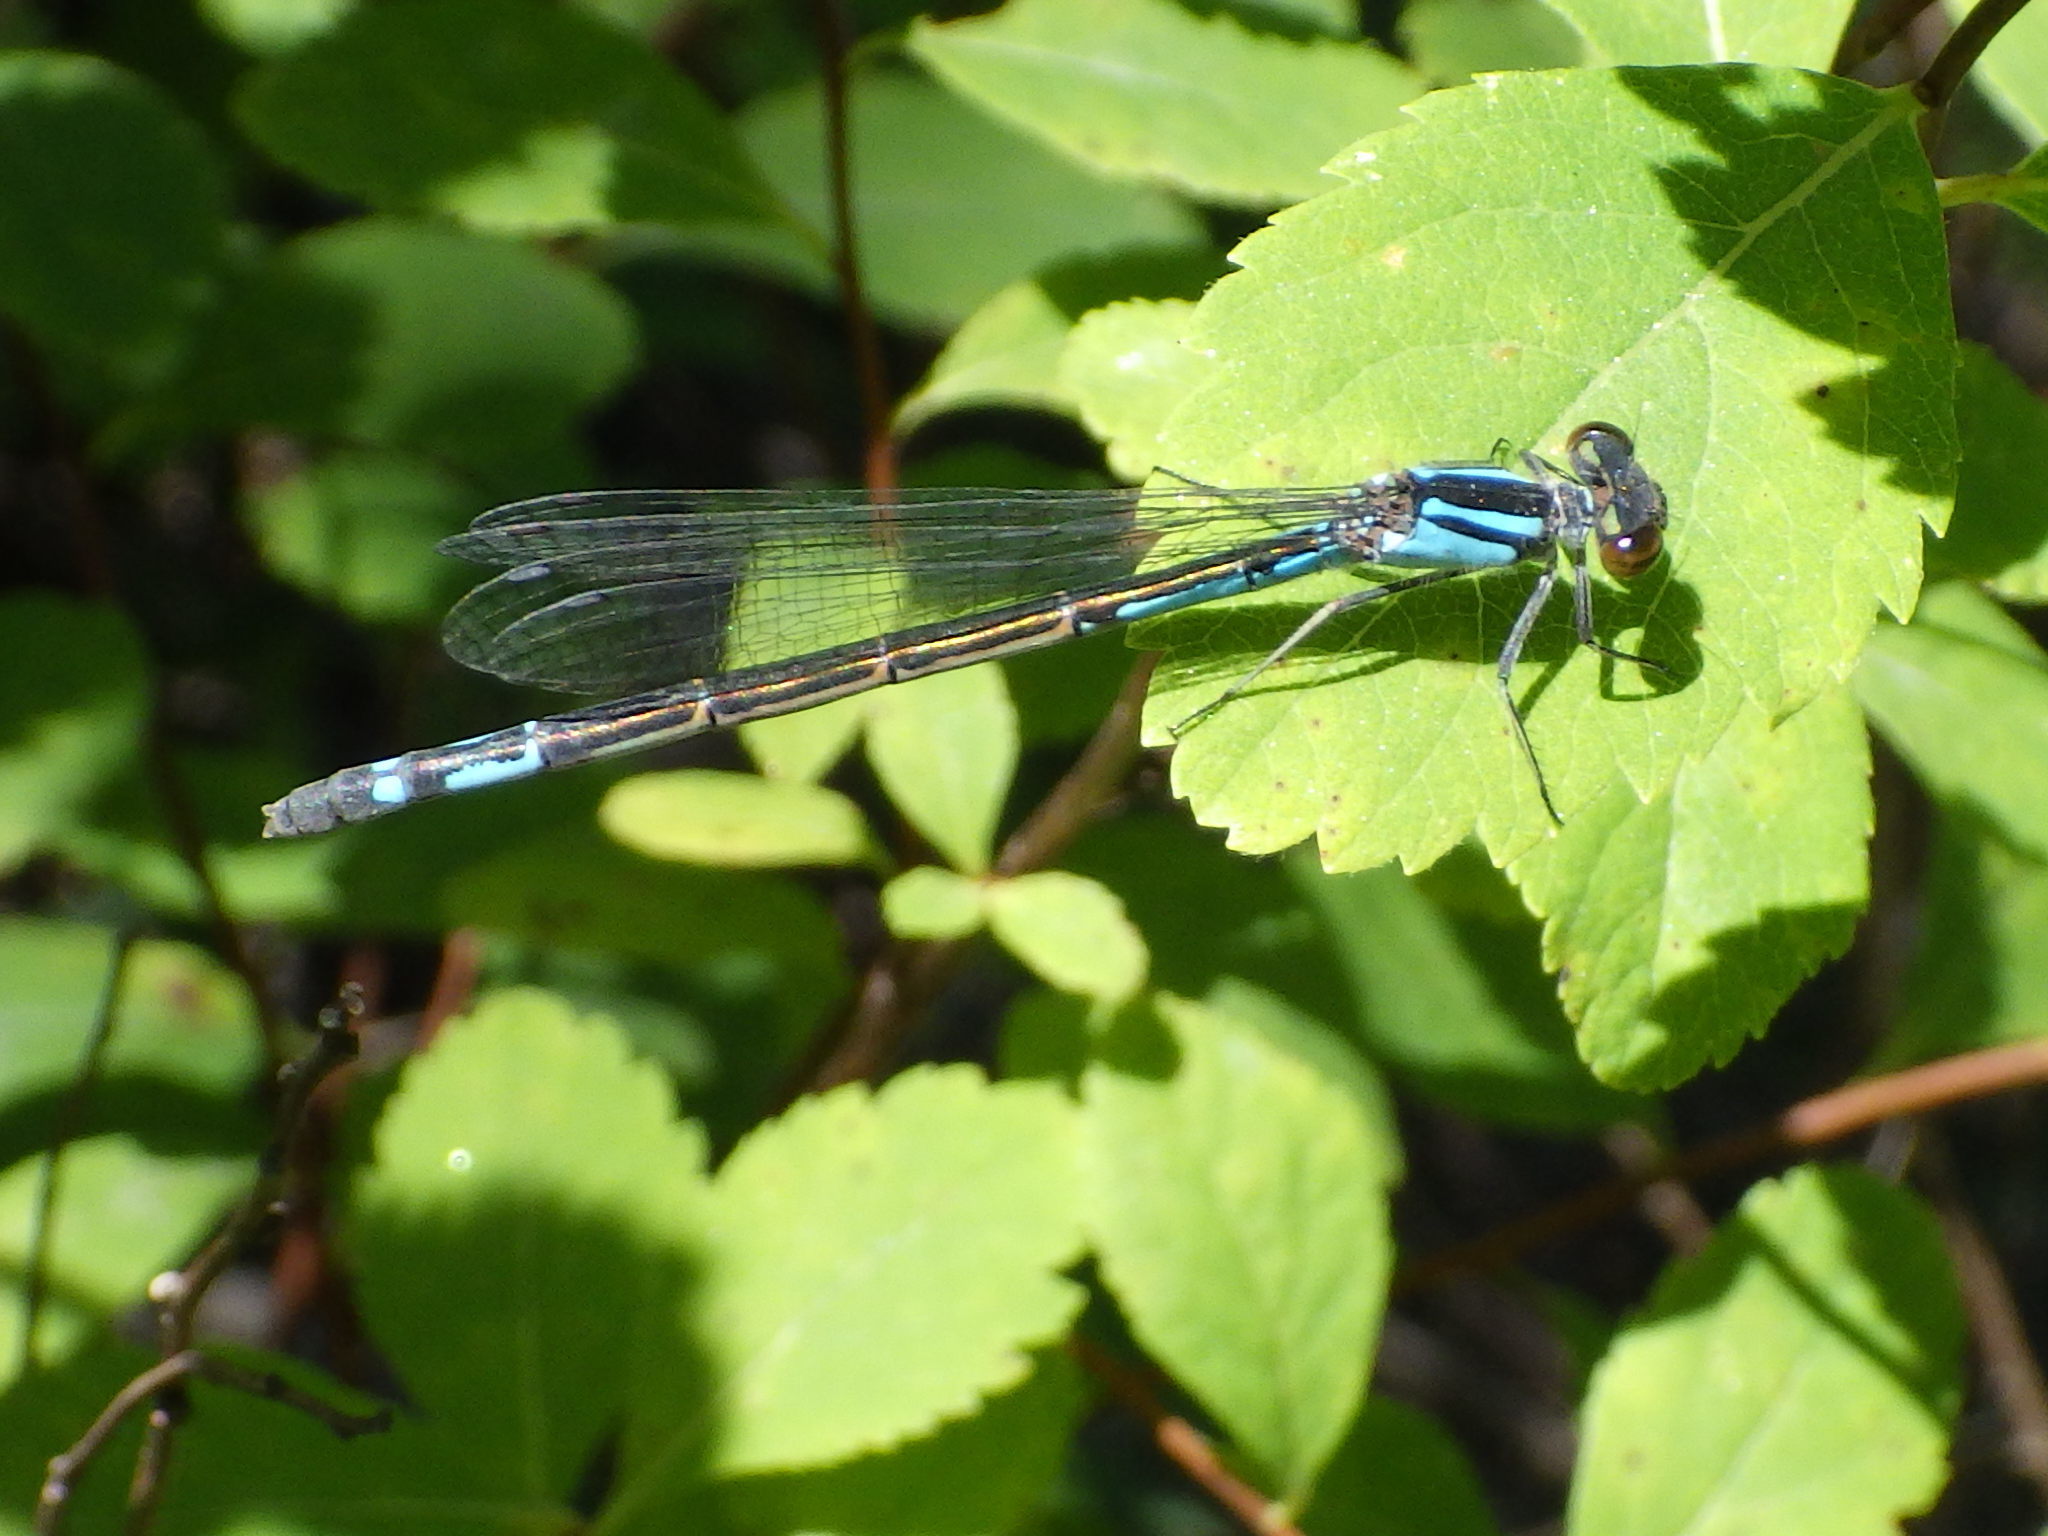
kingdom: Animalia
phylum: Arthropoda
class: Insecta
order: Odonata
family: Coenagrionidae
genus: Enallagma
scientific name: Enallagma aspersum
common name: Azure bluet
